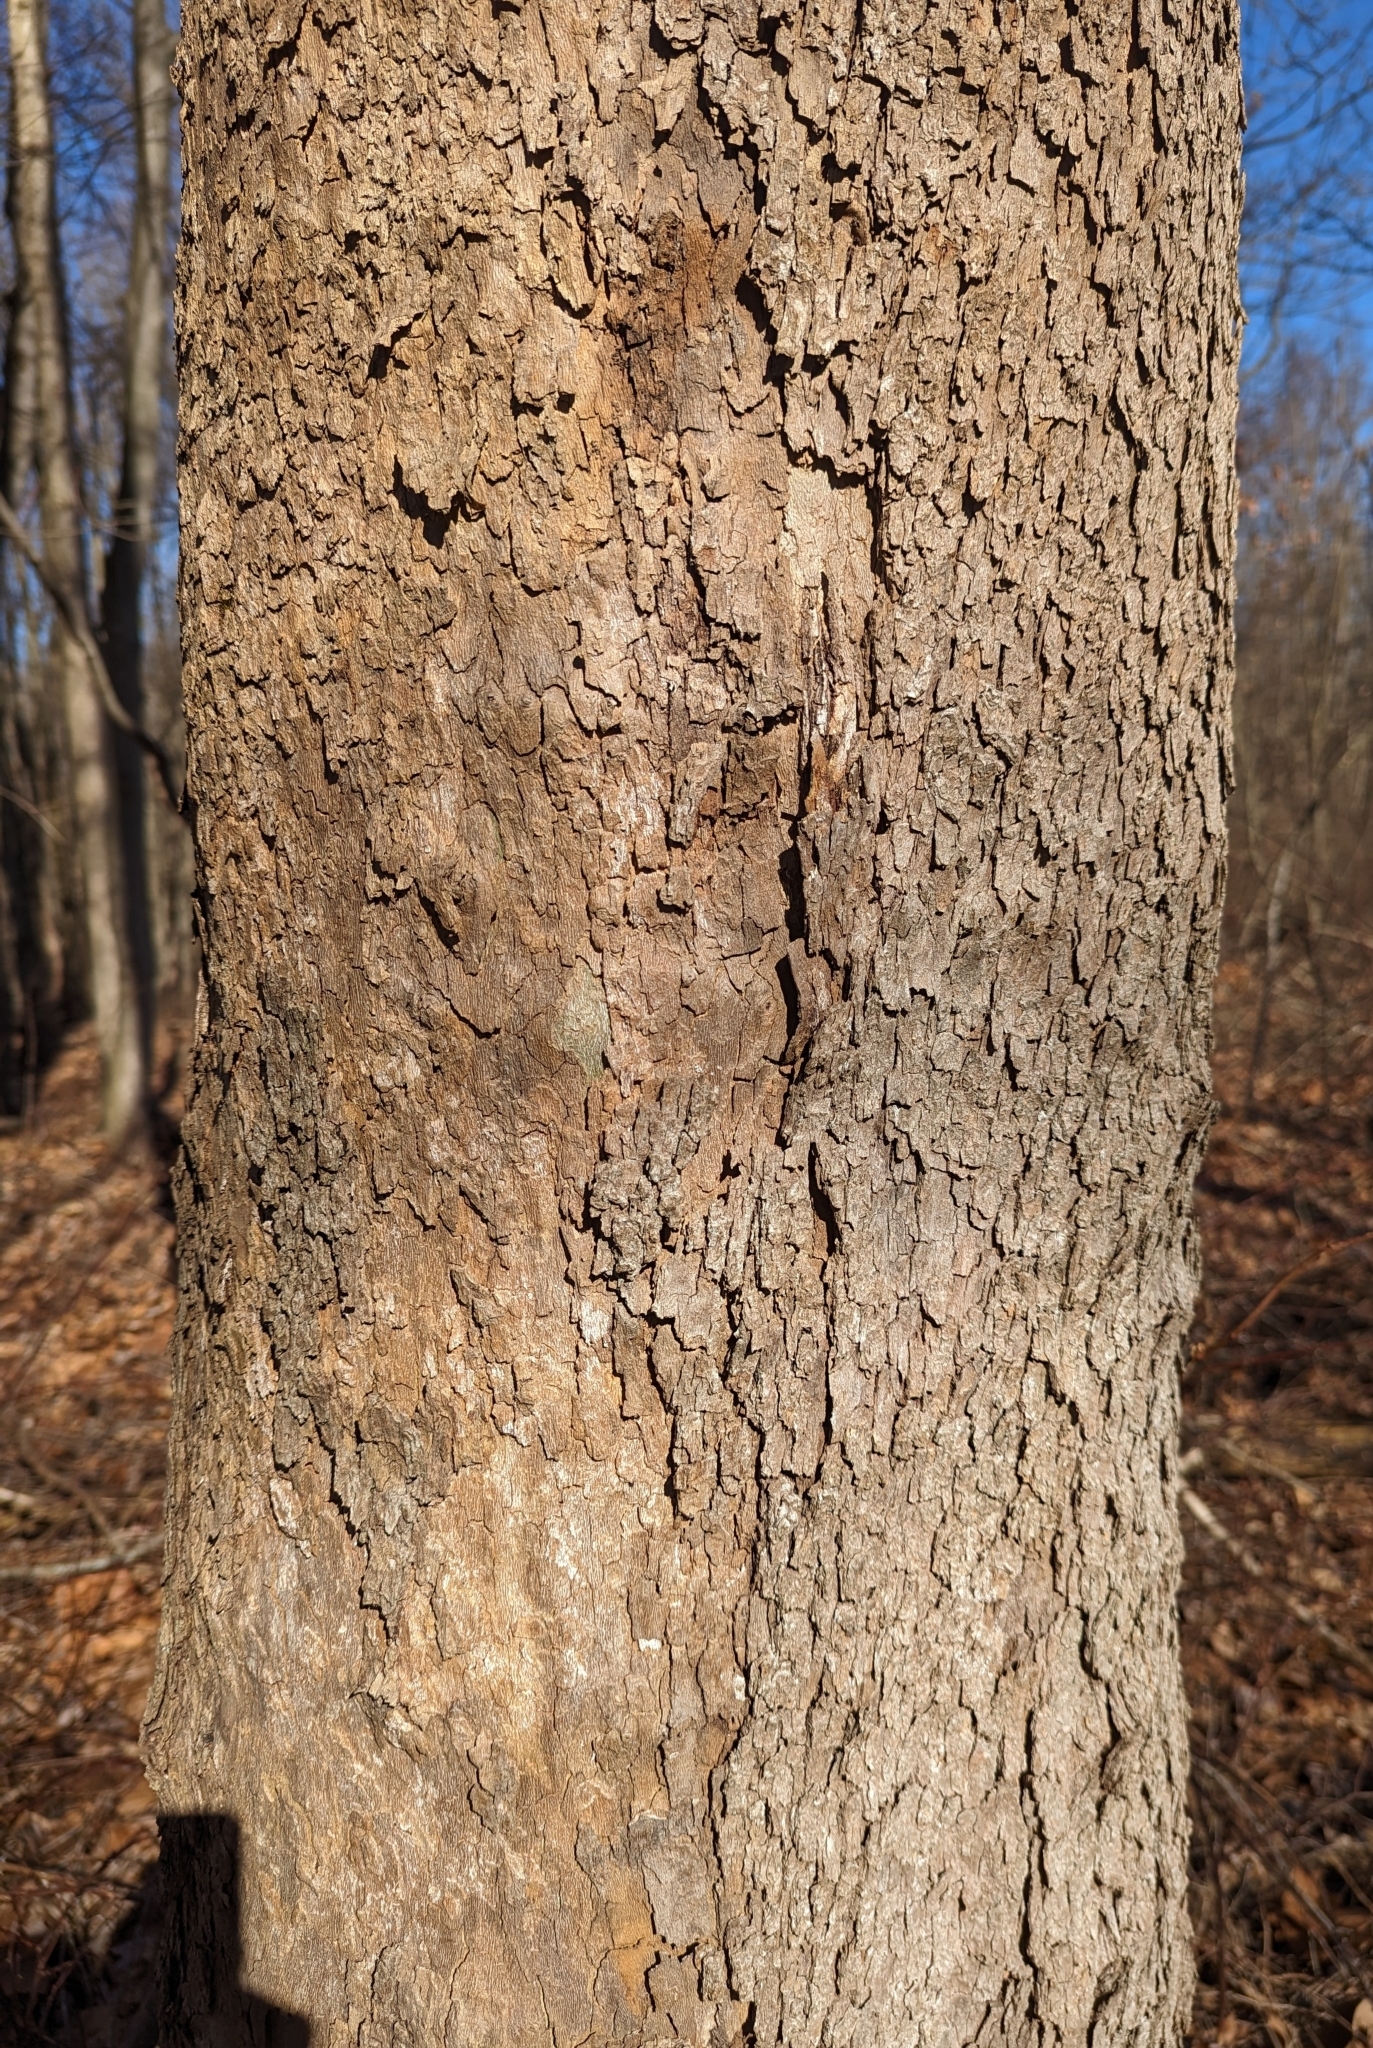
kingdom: Plantae
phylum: Tracheophyta
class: Magnoliopsida
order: Proteales
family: Platanaceae
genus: Platanus
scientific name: Platanus occidentalis
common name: American sycamore
